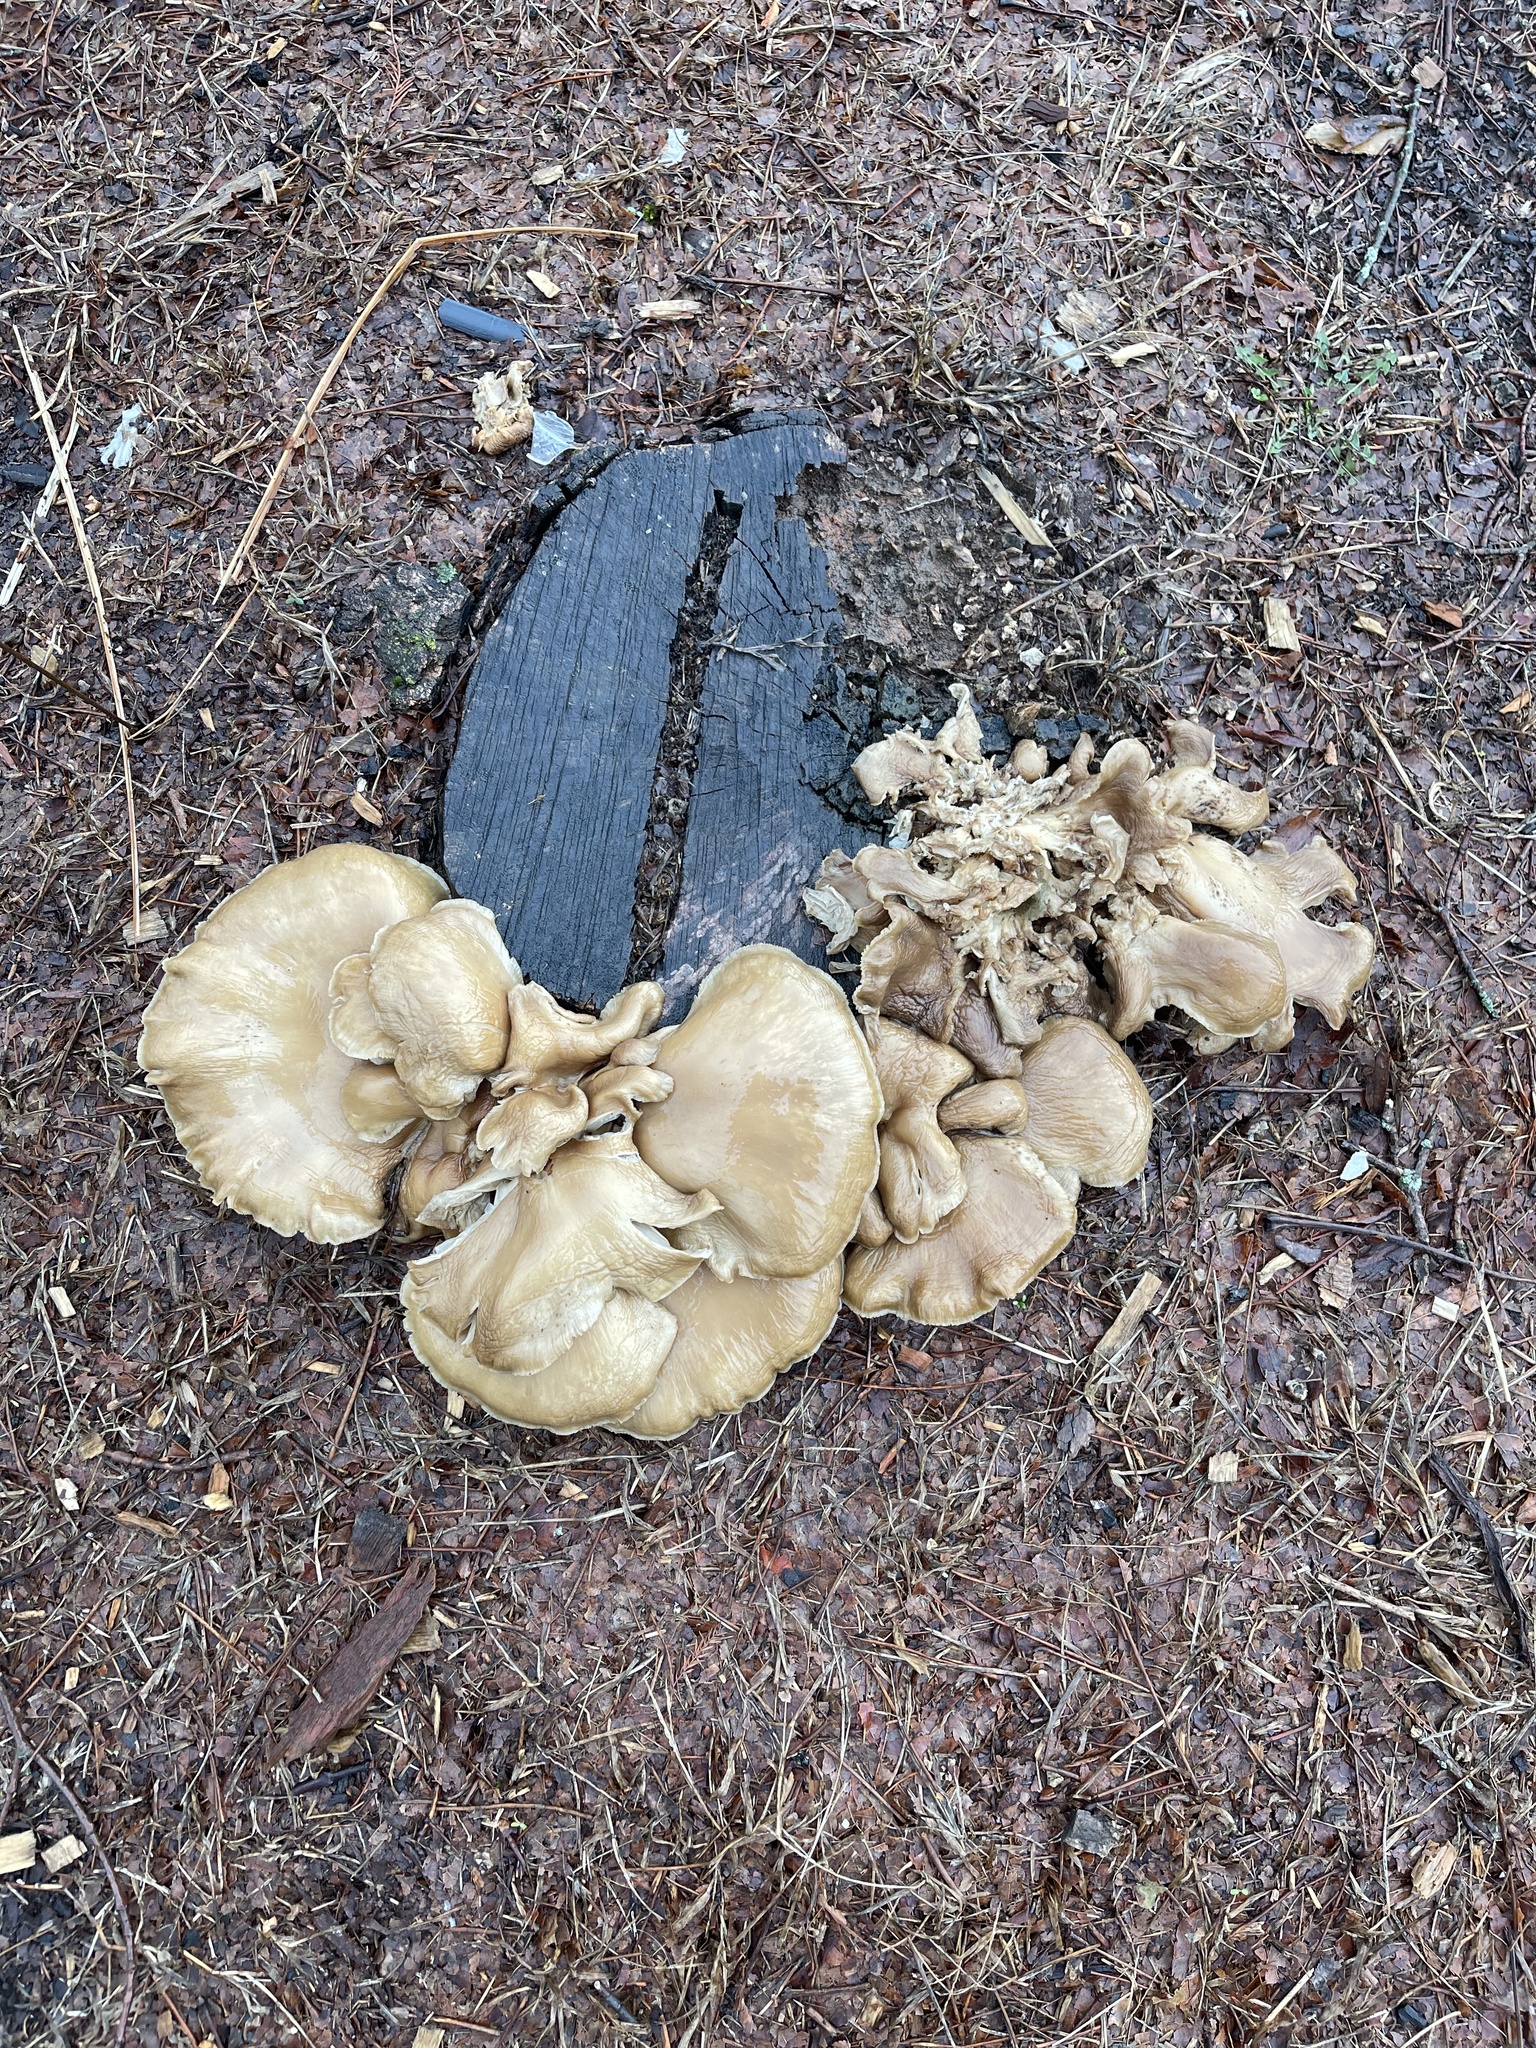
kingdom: Fungi
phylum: Basidiomycota
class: Agaricomycetes
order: Agaricales
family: Pleurotaceae
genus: Pleurotus
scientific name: Pleurotus ostreatus
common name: Oyster mushroom
